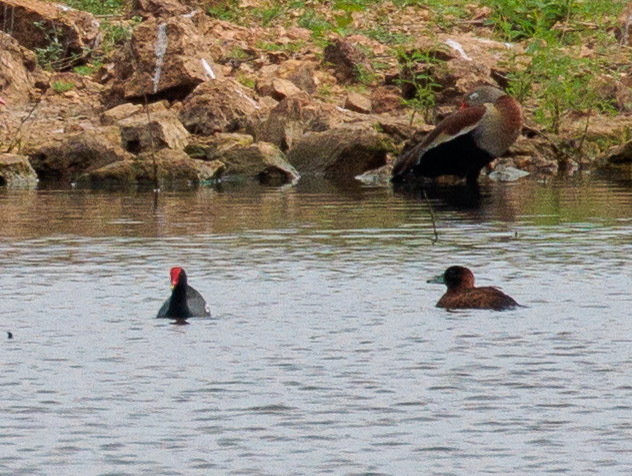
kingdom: Animalia
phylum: Chordata
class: Aves
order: Anseriformes
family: Anatidae
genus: Nomonyx
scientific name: Nomonyx dominicus
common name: Masked duck
